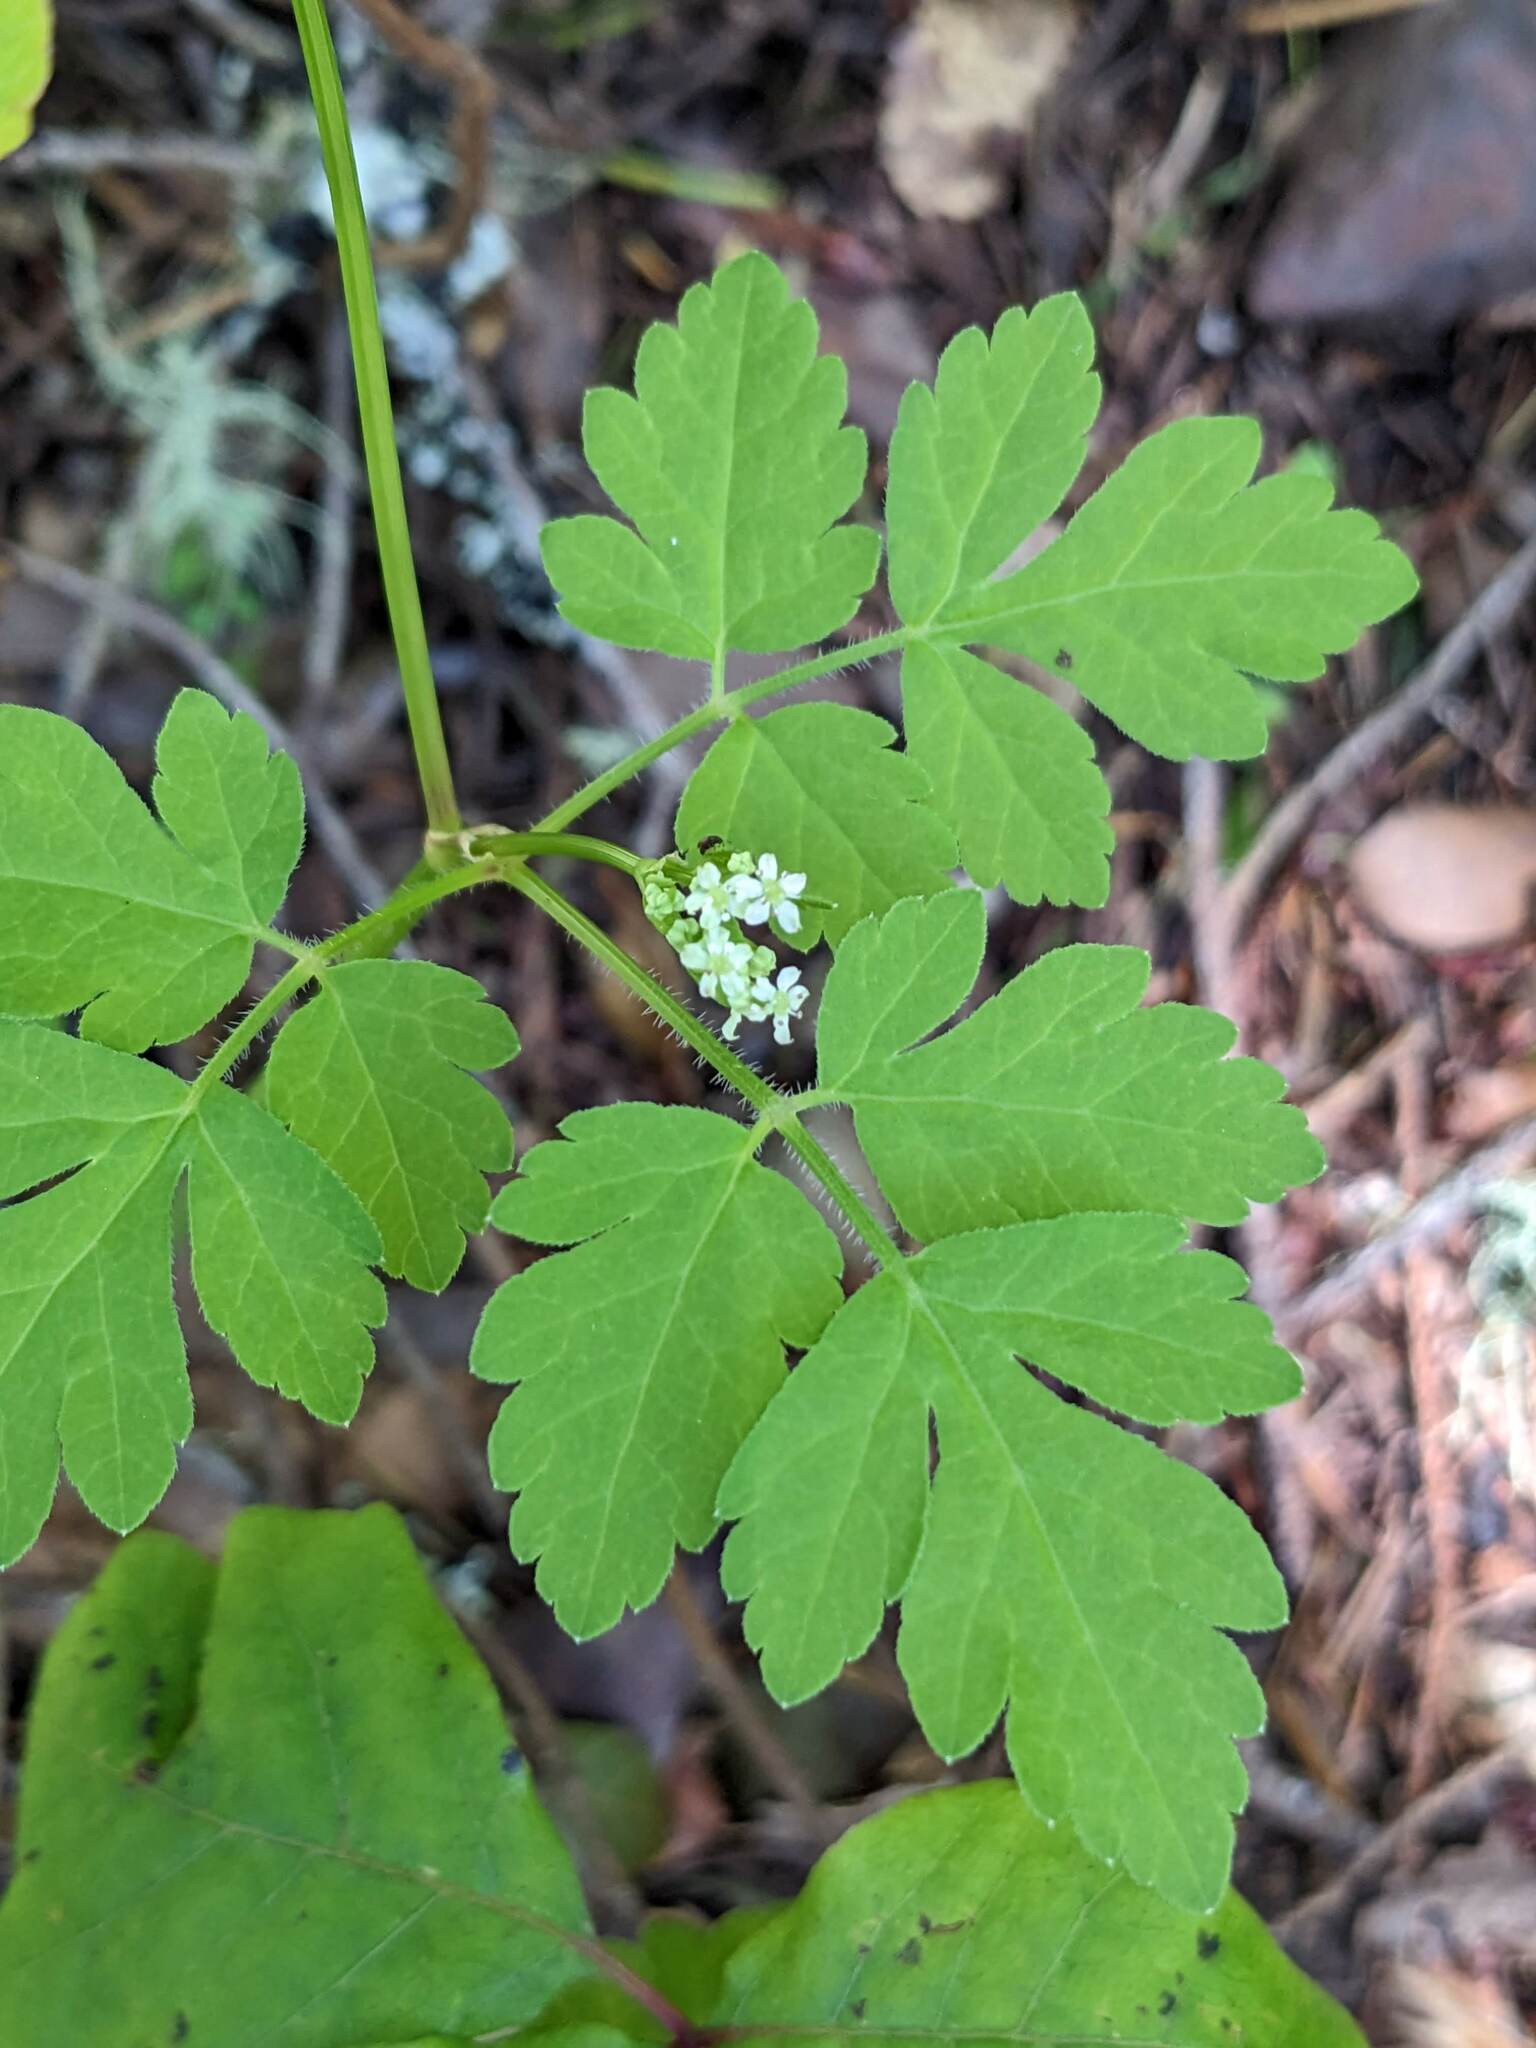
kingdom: Plantae
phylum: Tracheophyta
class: Magnoliopsida
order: Apiales
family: Apiaceae
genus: Osmorhiza
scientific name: Osmorhiza berteroi
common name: Mountain sweet cicely
